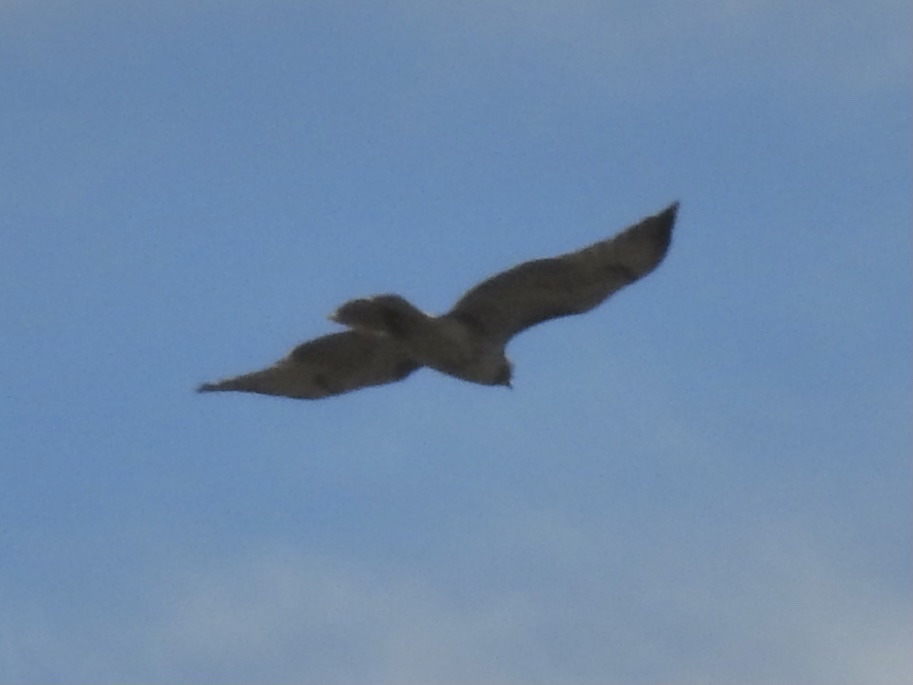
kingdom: Animalia
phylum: Chordata
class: Aves
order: Accipitriformes
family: Accipitridae
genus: Buteo
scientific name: Buteo jamaicensis
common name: Red-tailed hawk
